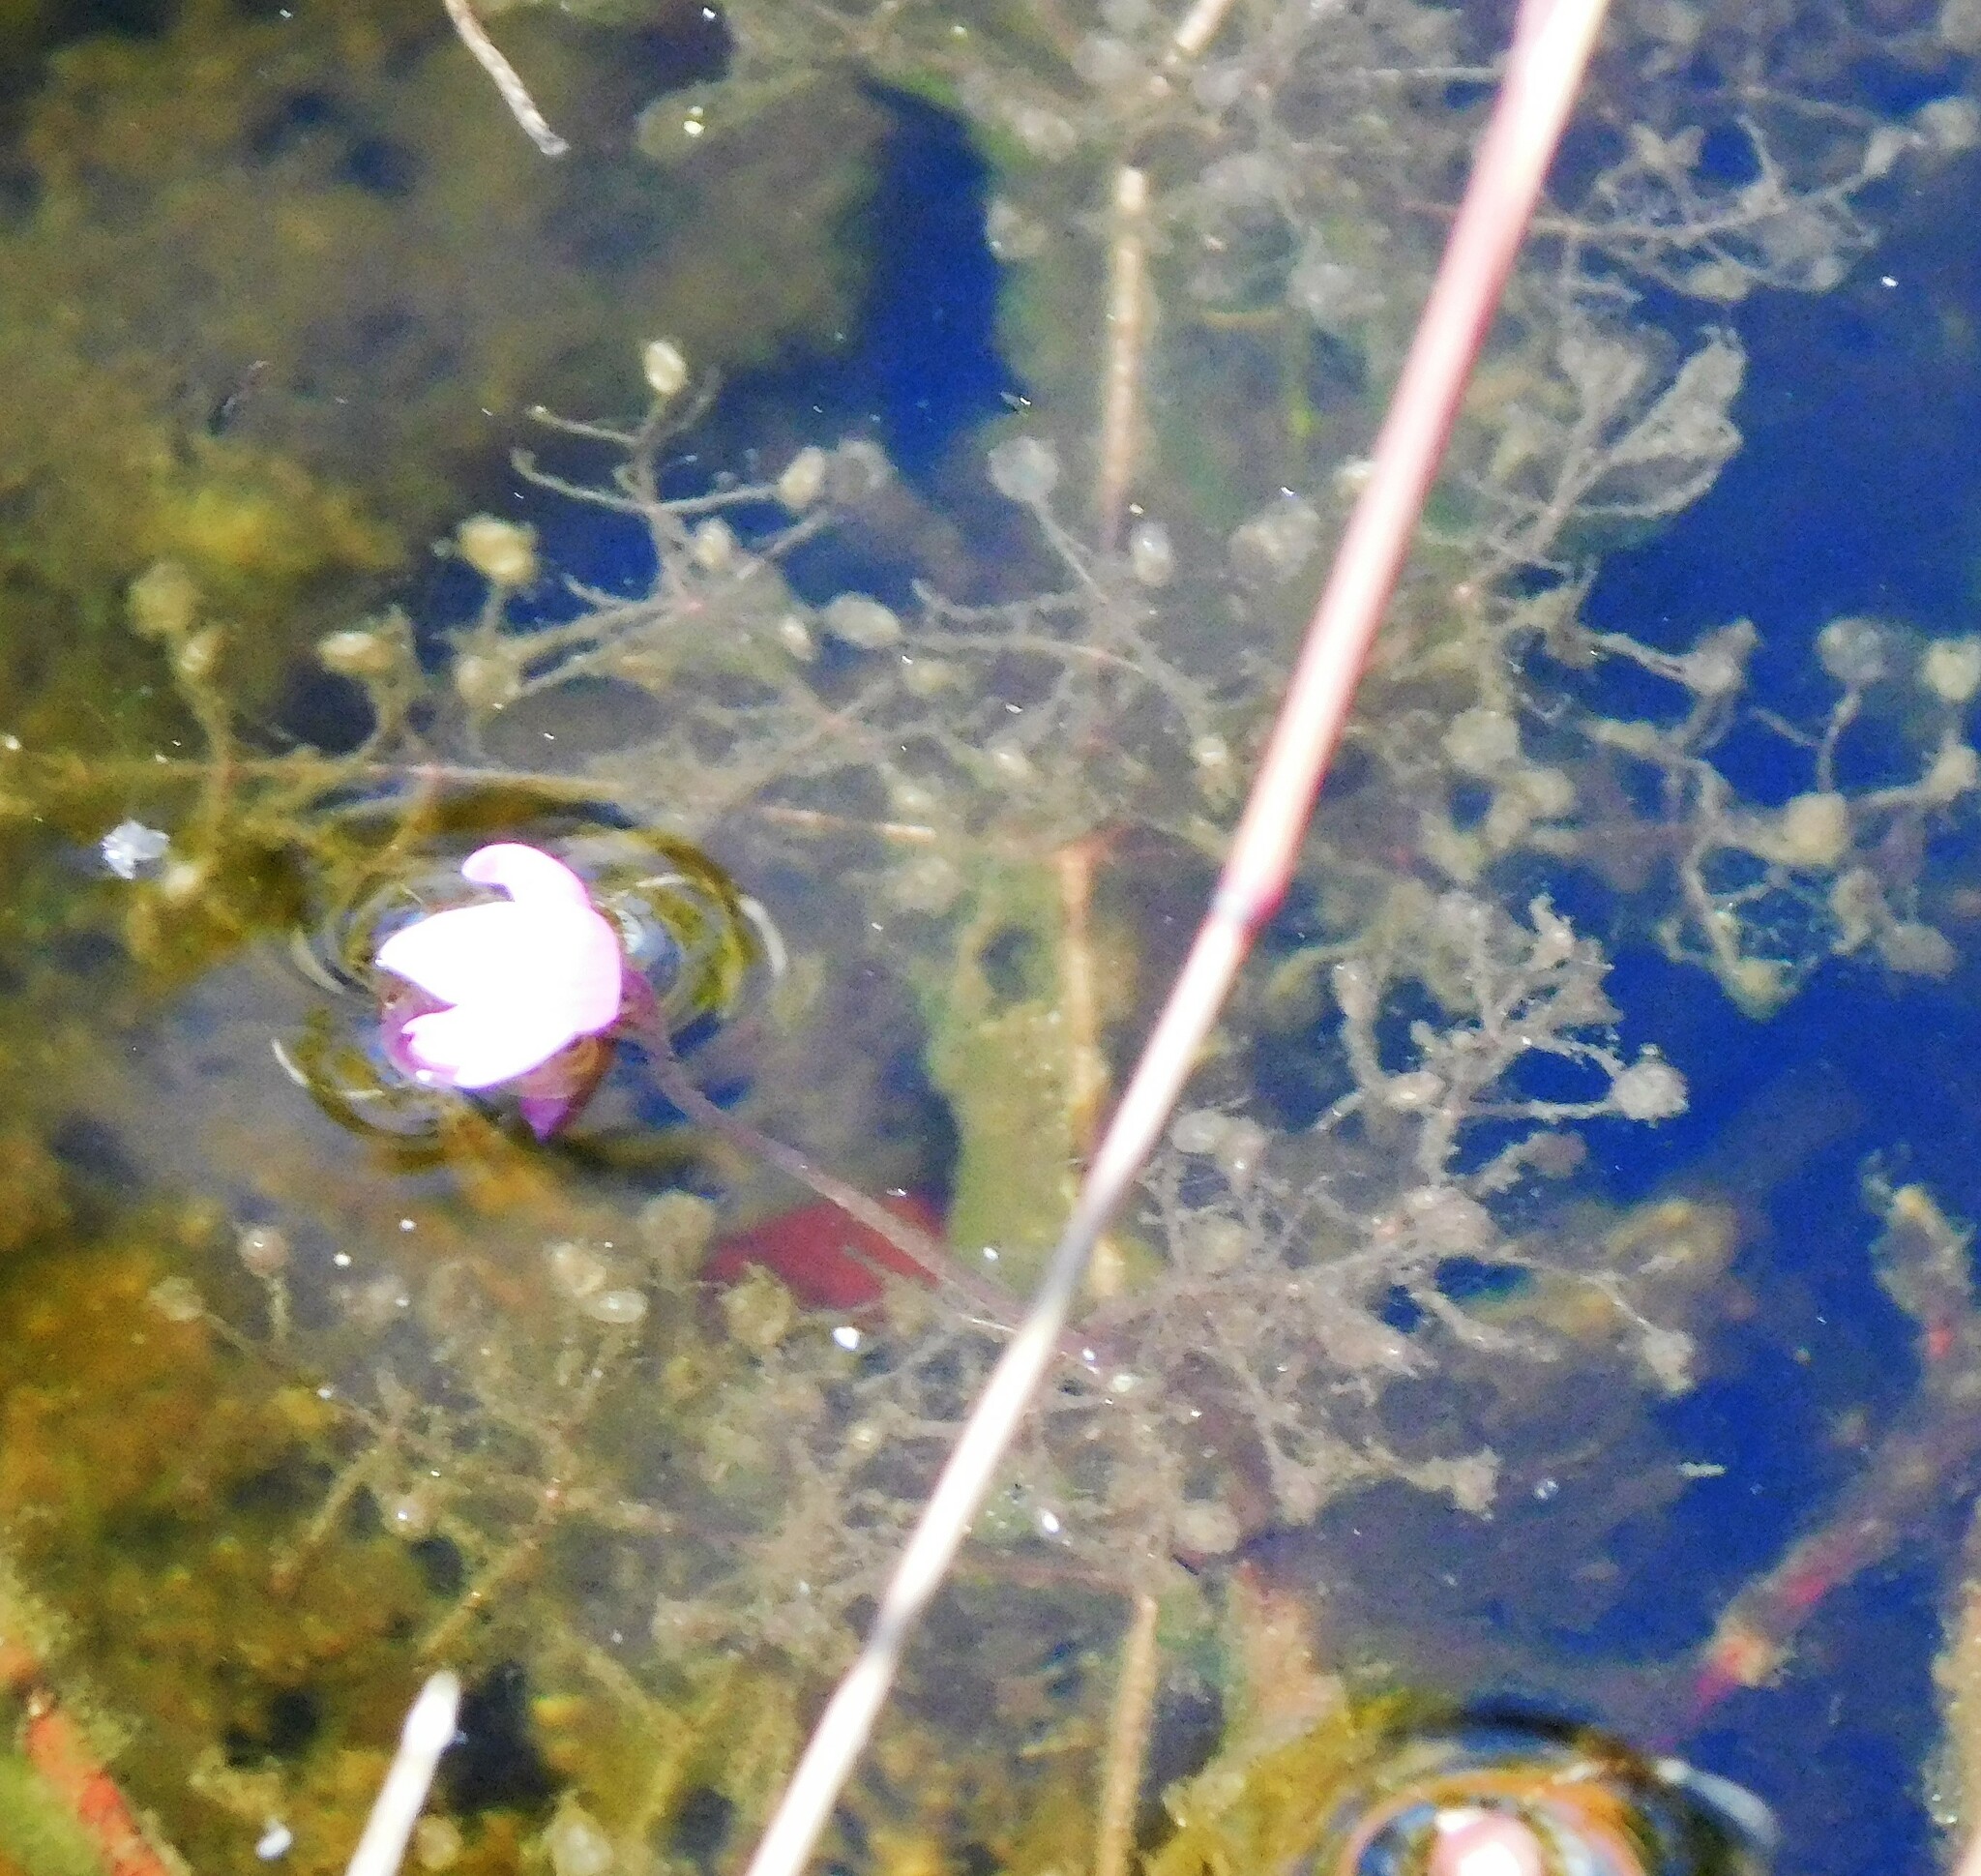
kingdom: Plantae
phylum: Tracheophyta
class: Magnoliopsida
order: Lamiales
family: Lentibulariaceae
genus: Utricularia
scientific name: Utricularia purpurea
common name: Eastern purple bladderwort
